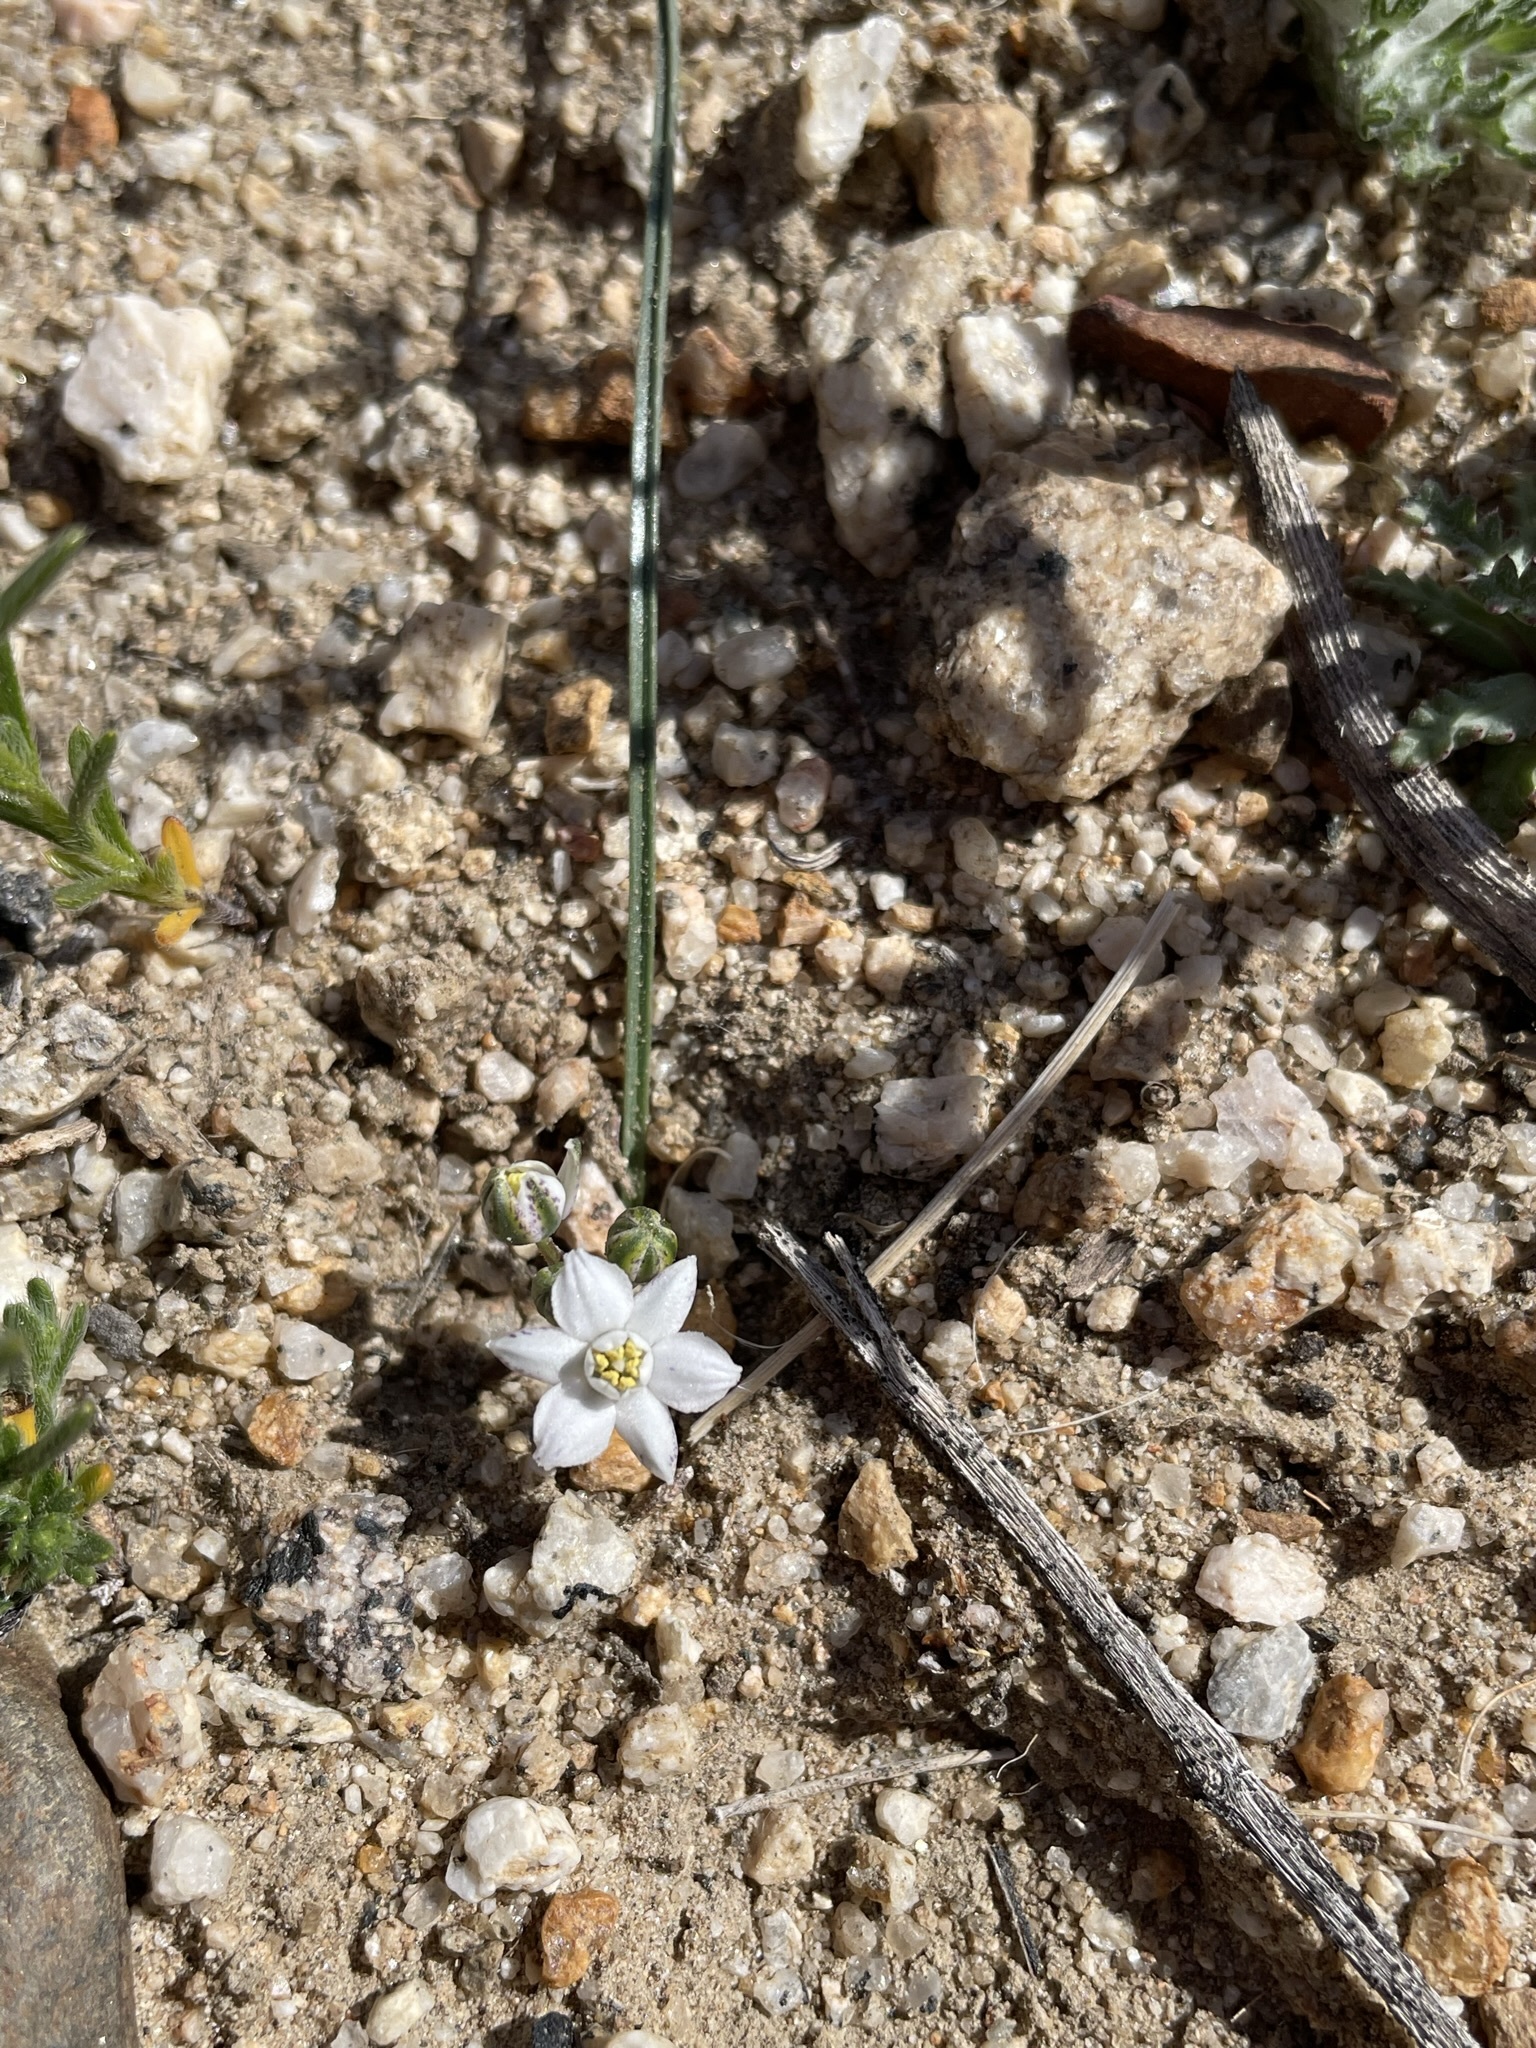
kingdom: Plantae
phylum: Tracheophyta
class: Liliopsida
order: Asparagales
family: Asparagaceae
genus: Muilla
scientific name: Muilla coronata
